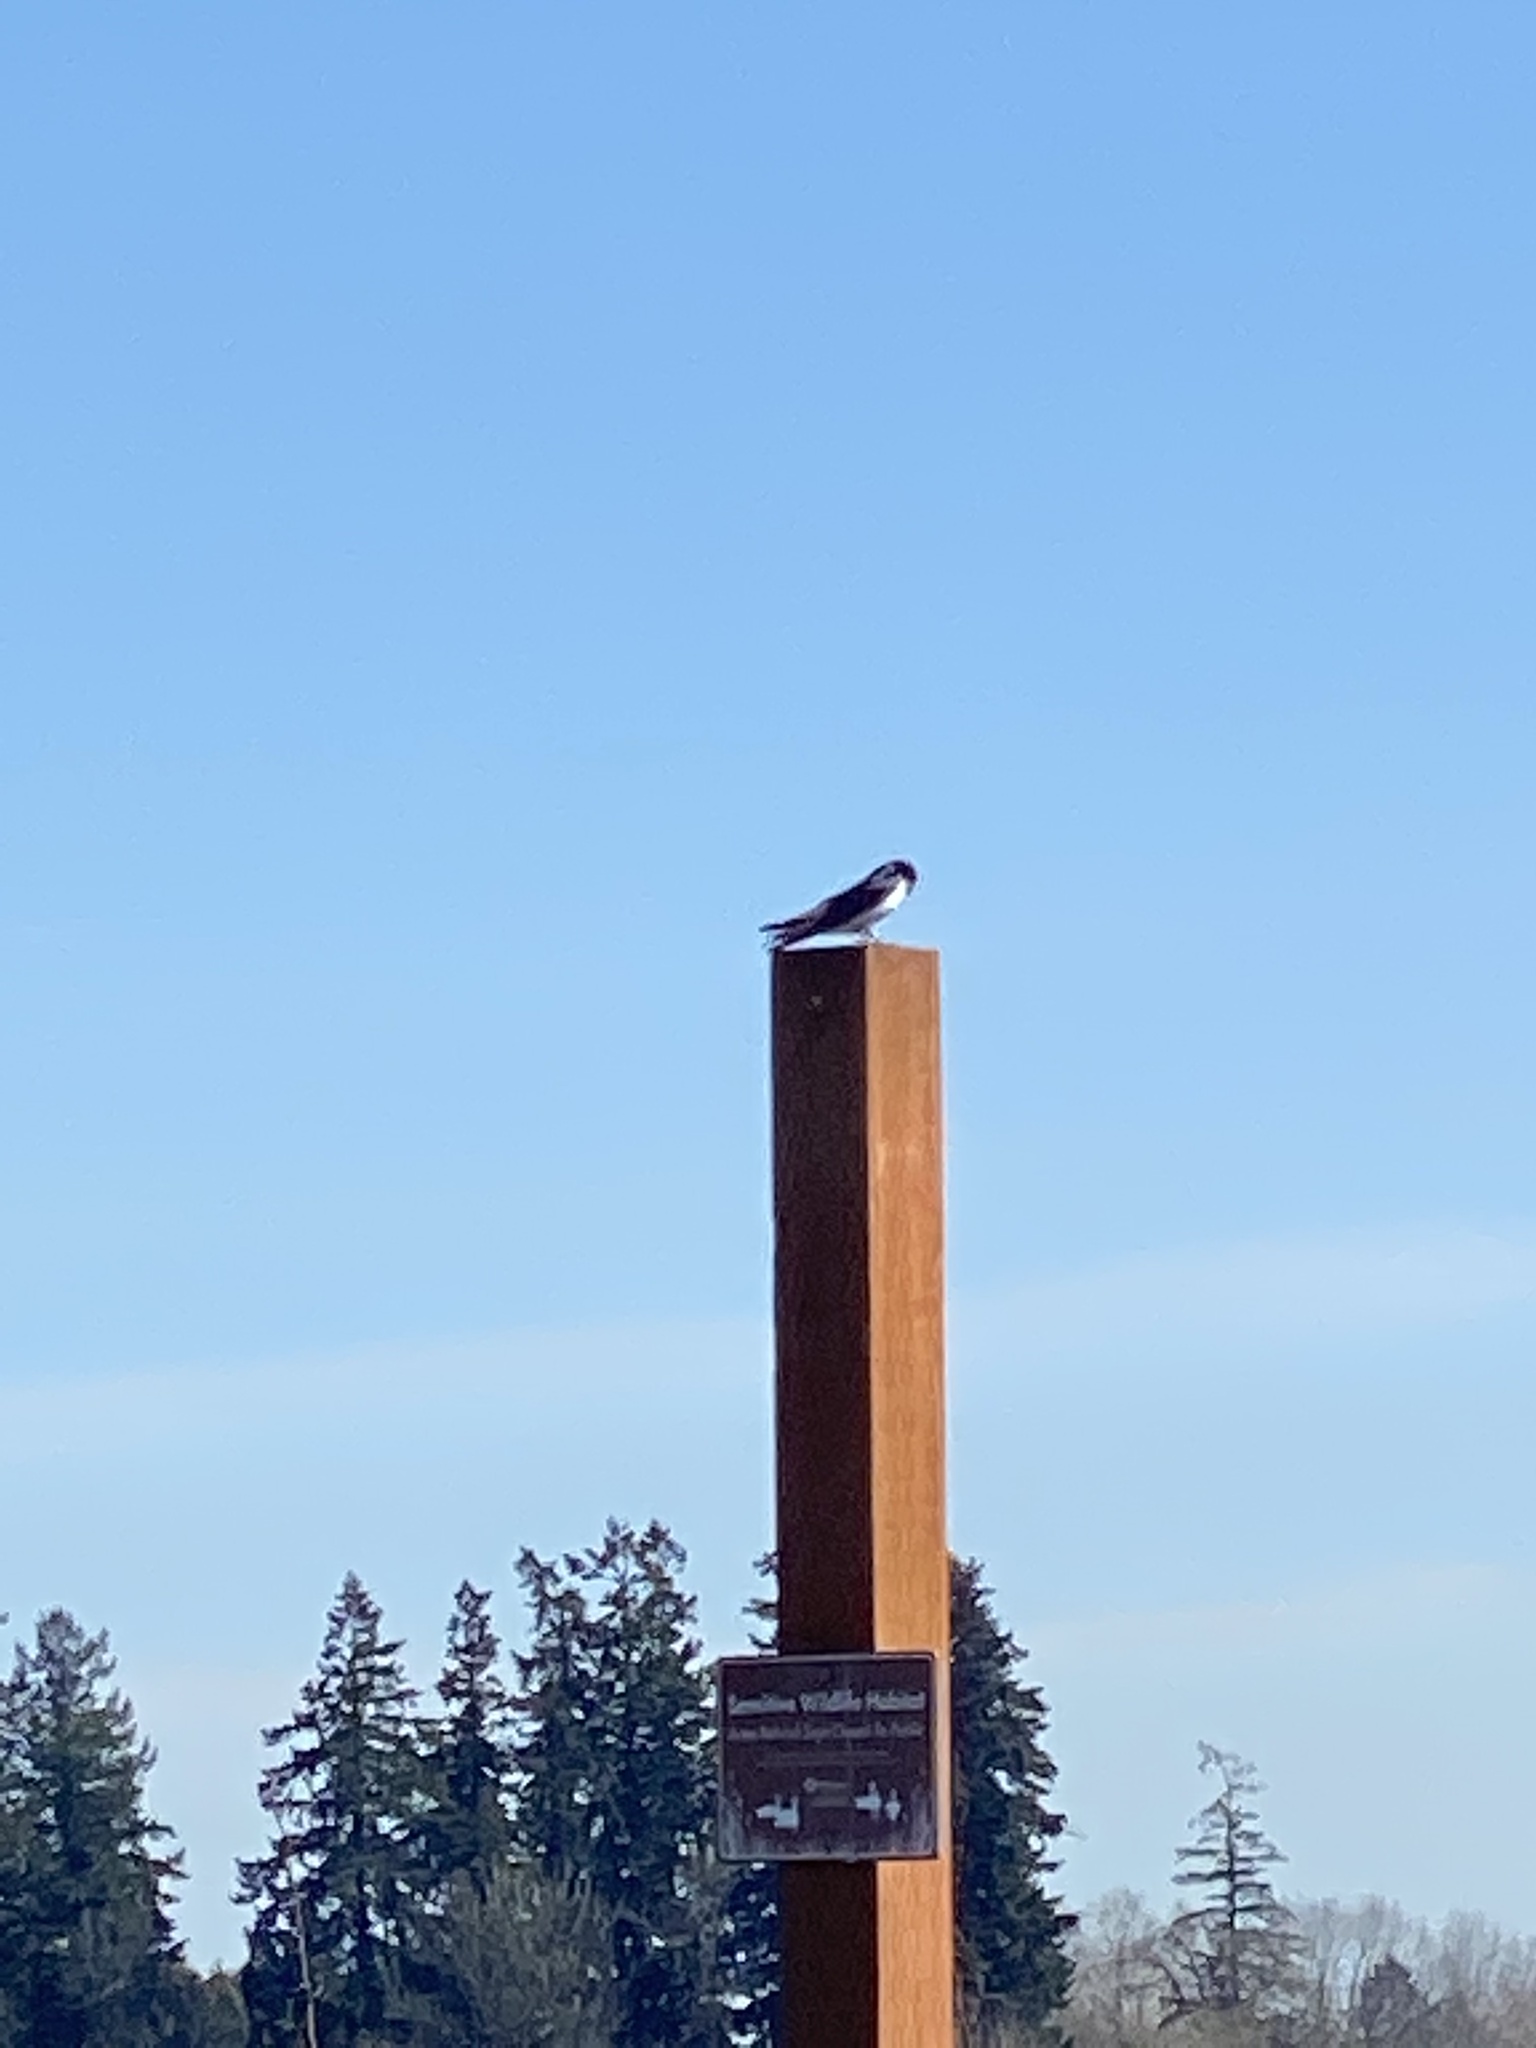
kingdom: Animalia
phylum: Chordata
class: Aves
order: Passeriformes
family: Hirundinidae
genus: Tachycineta
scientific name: Tachycineta bicolor
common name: Tree swallow
